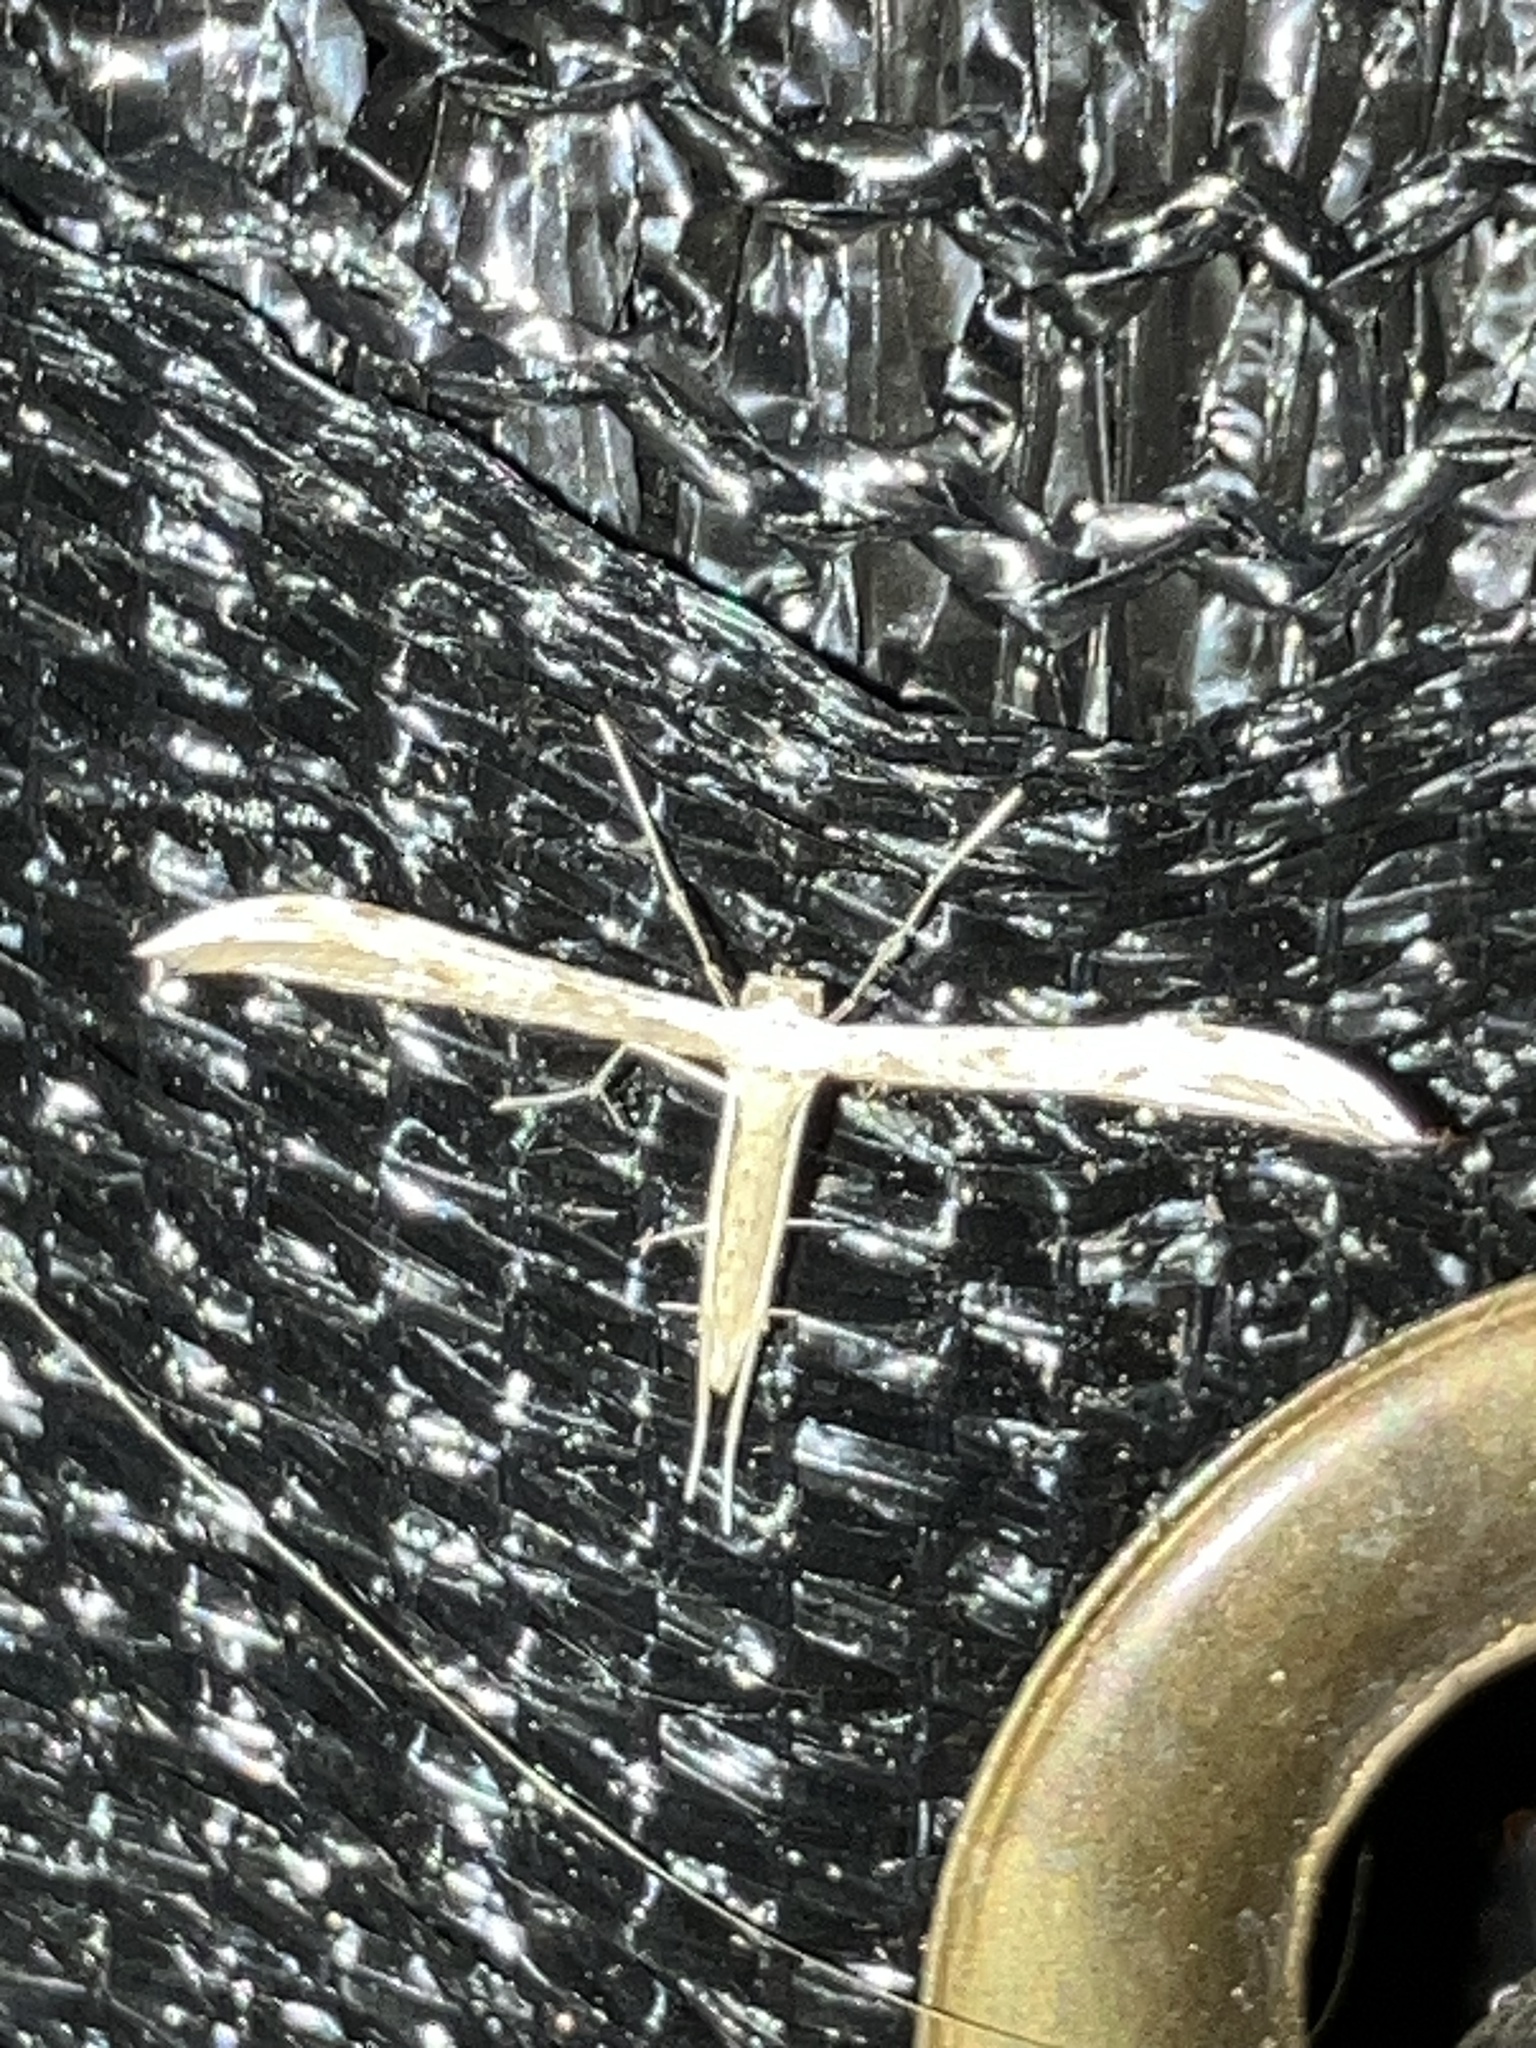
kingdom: Animalia
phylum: Arthropoda
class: Insecta
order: Lepidoptera
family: Pterophoridae
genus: Pselnophorus
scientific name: Pselnophorus
